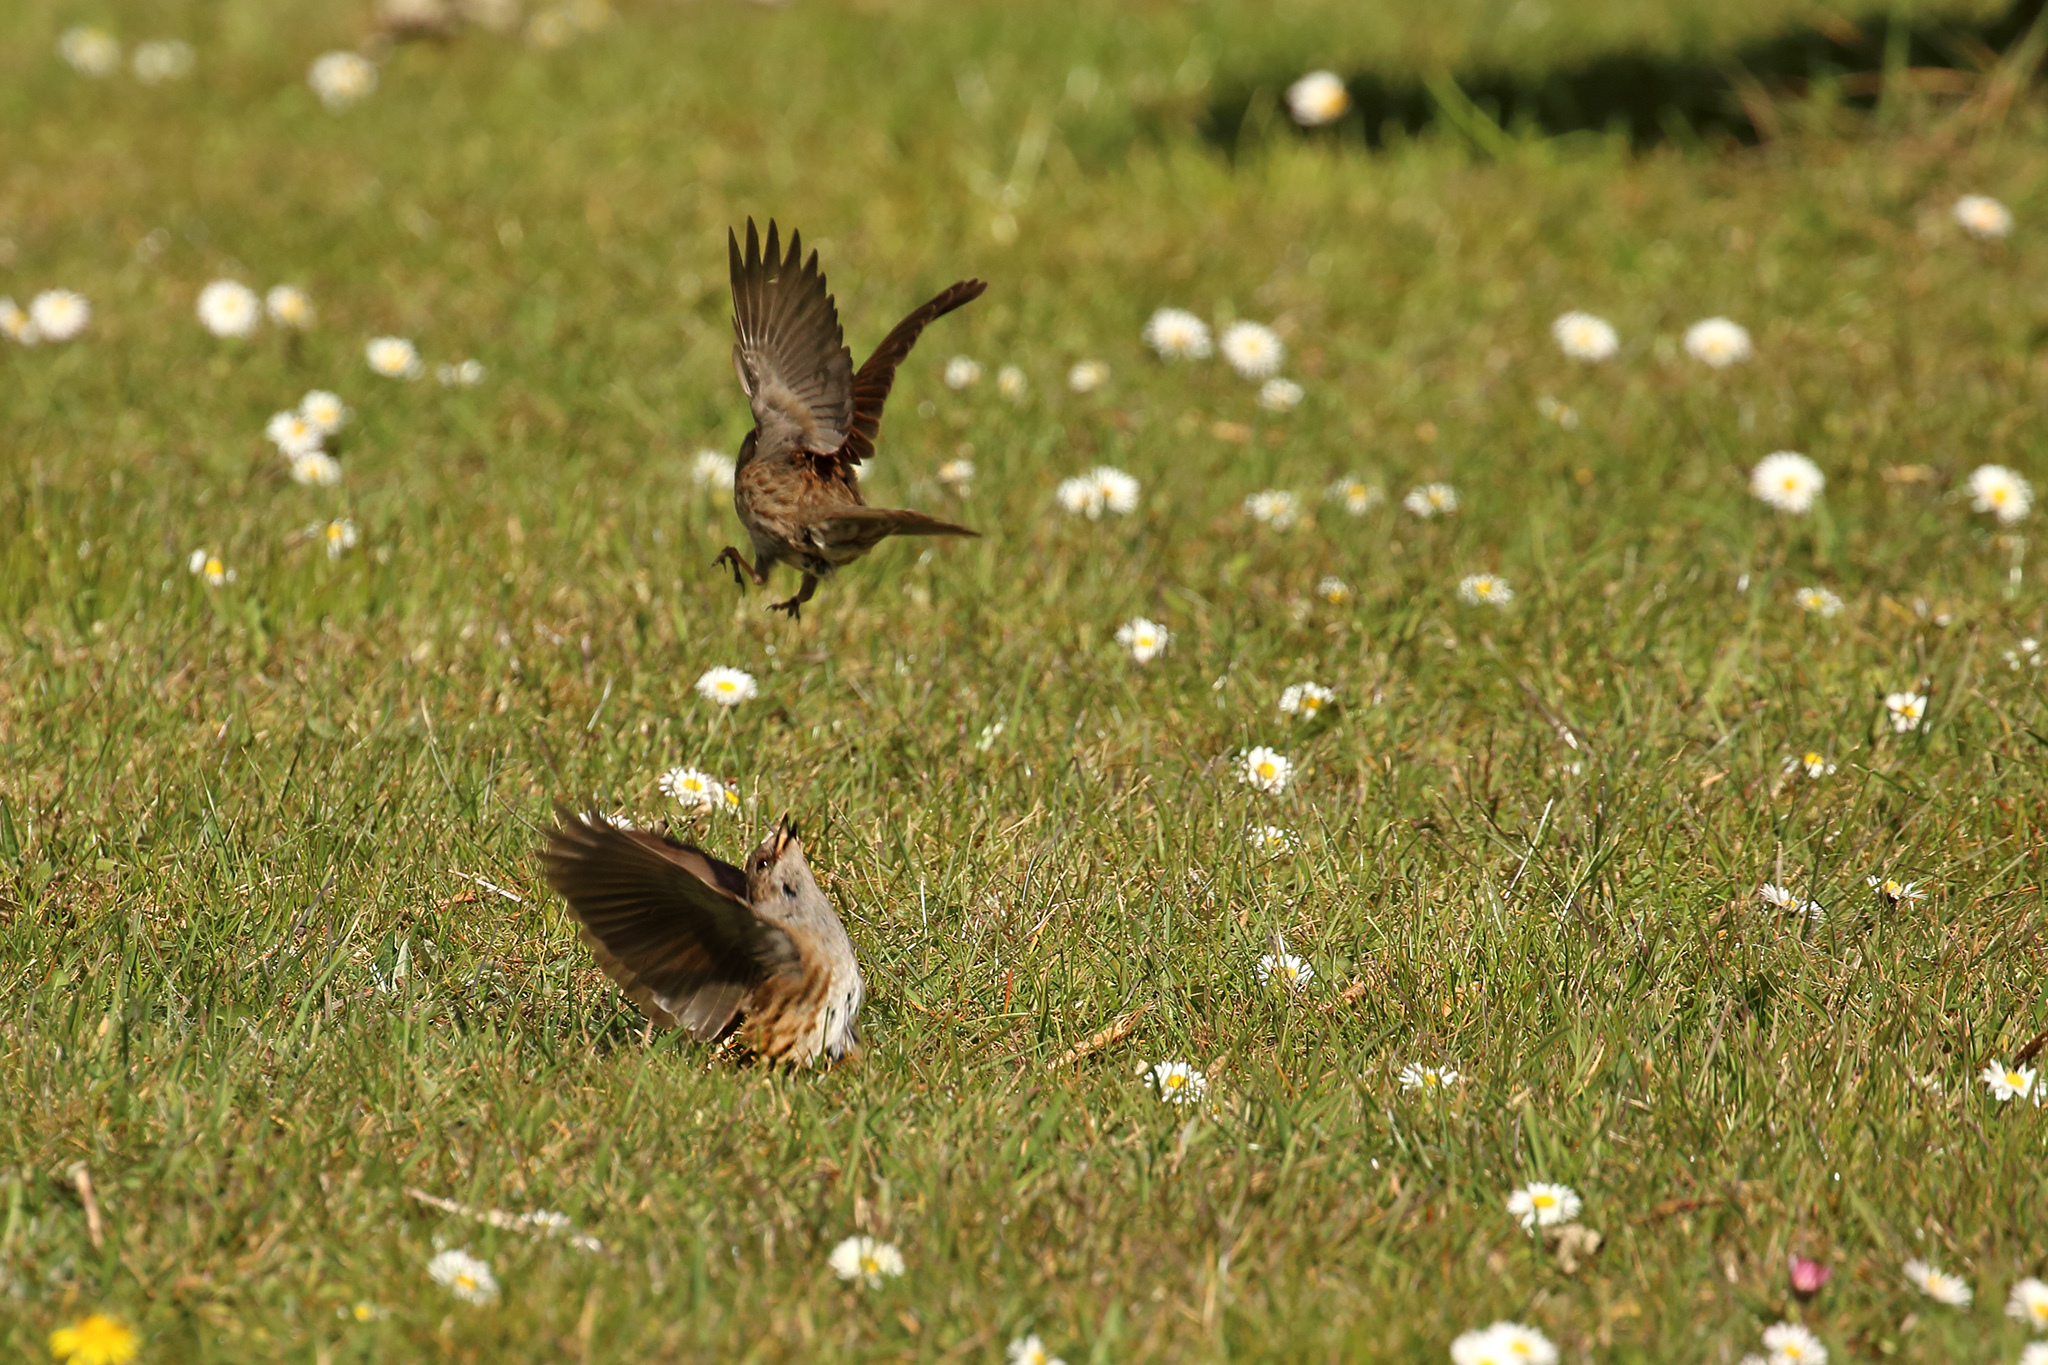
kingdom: Animalia
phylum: Chordata
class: Aves
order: Passeriformes
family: Prunellidae
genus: Prunella
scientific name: Prunella modularis
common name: Dunnock
